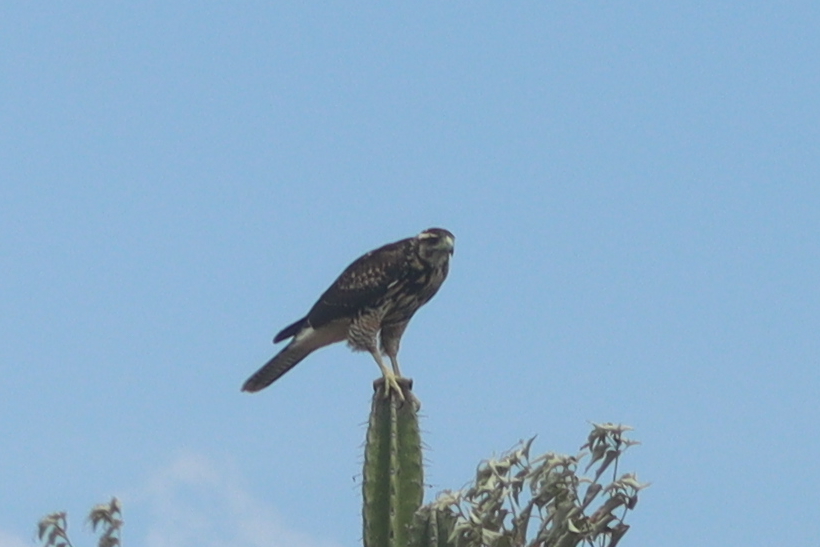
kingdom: Animalia
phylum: Chordata
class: Aves
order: Accipitriformes
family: Accipitridae
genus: Parabuteo
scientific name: Parabuteo unicinctus
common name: Harris's hawk
